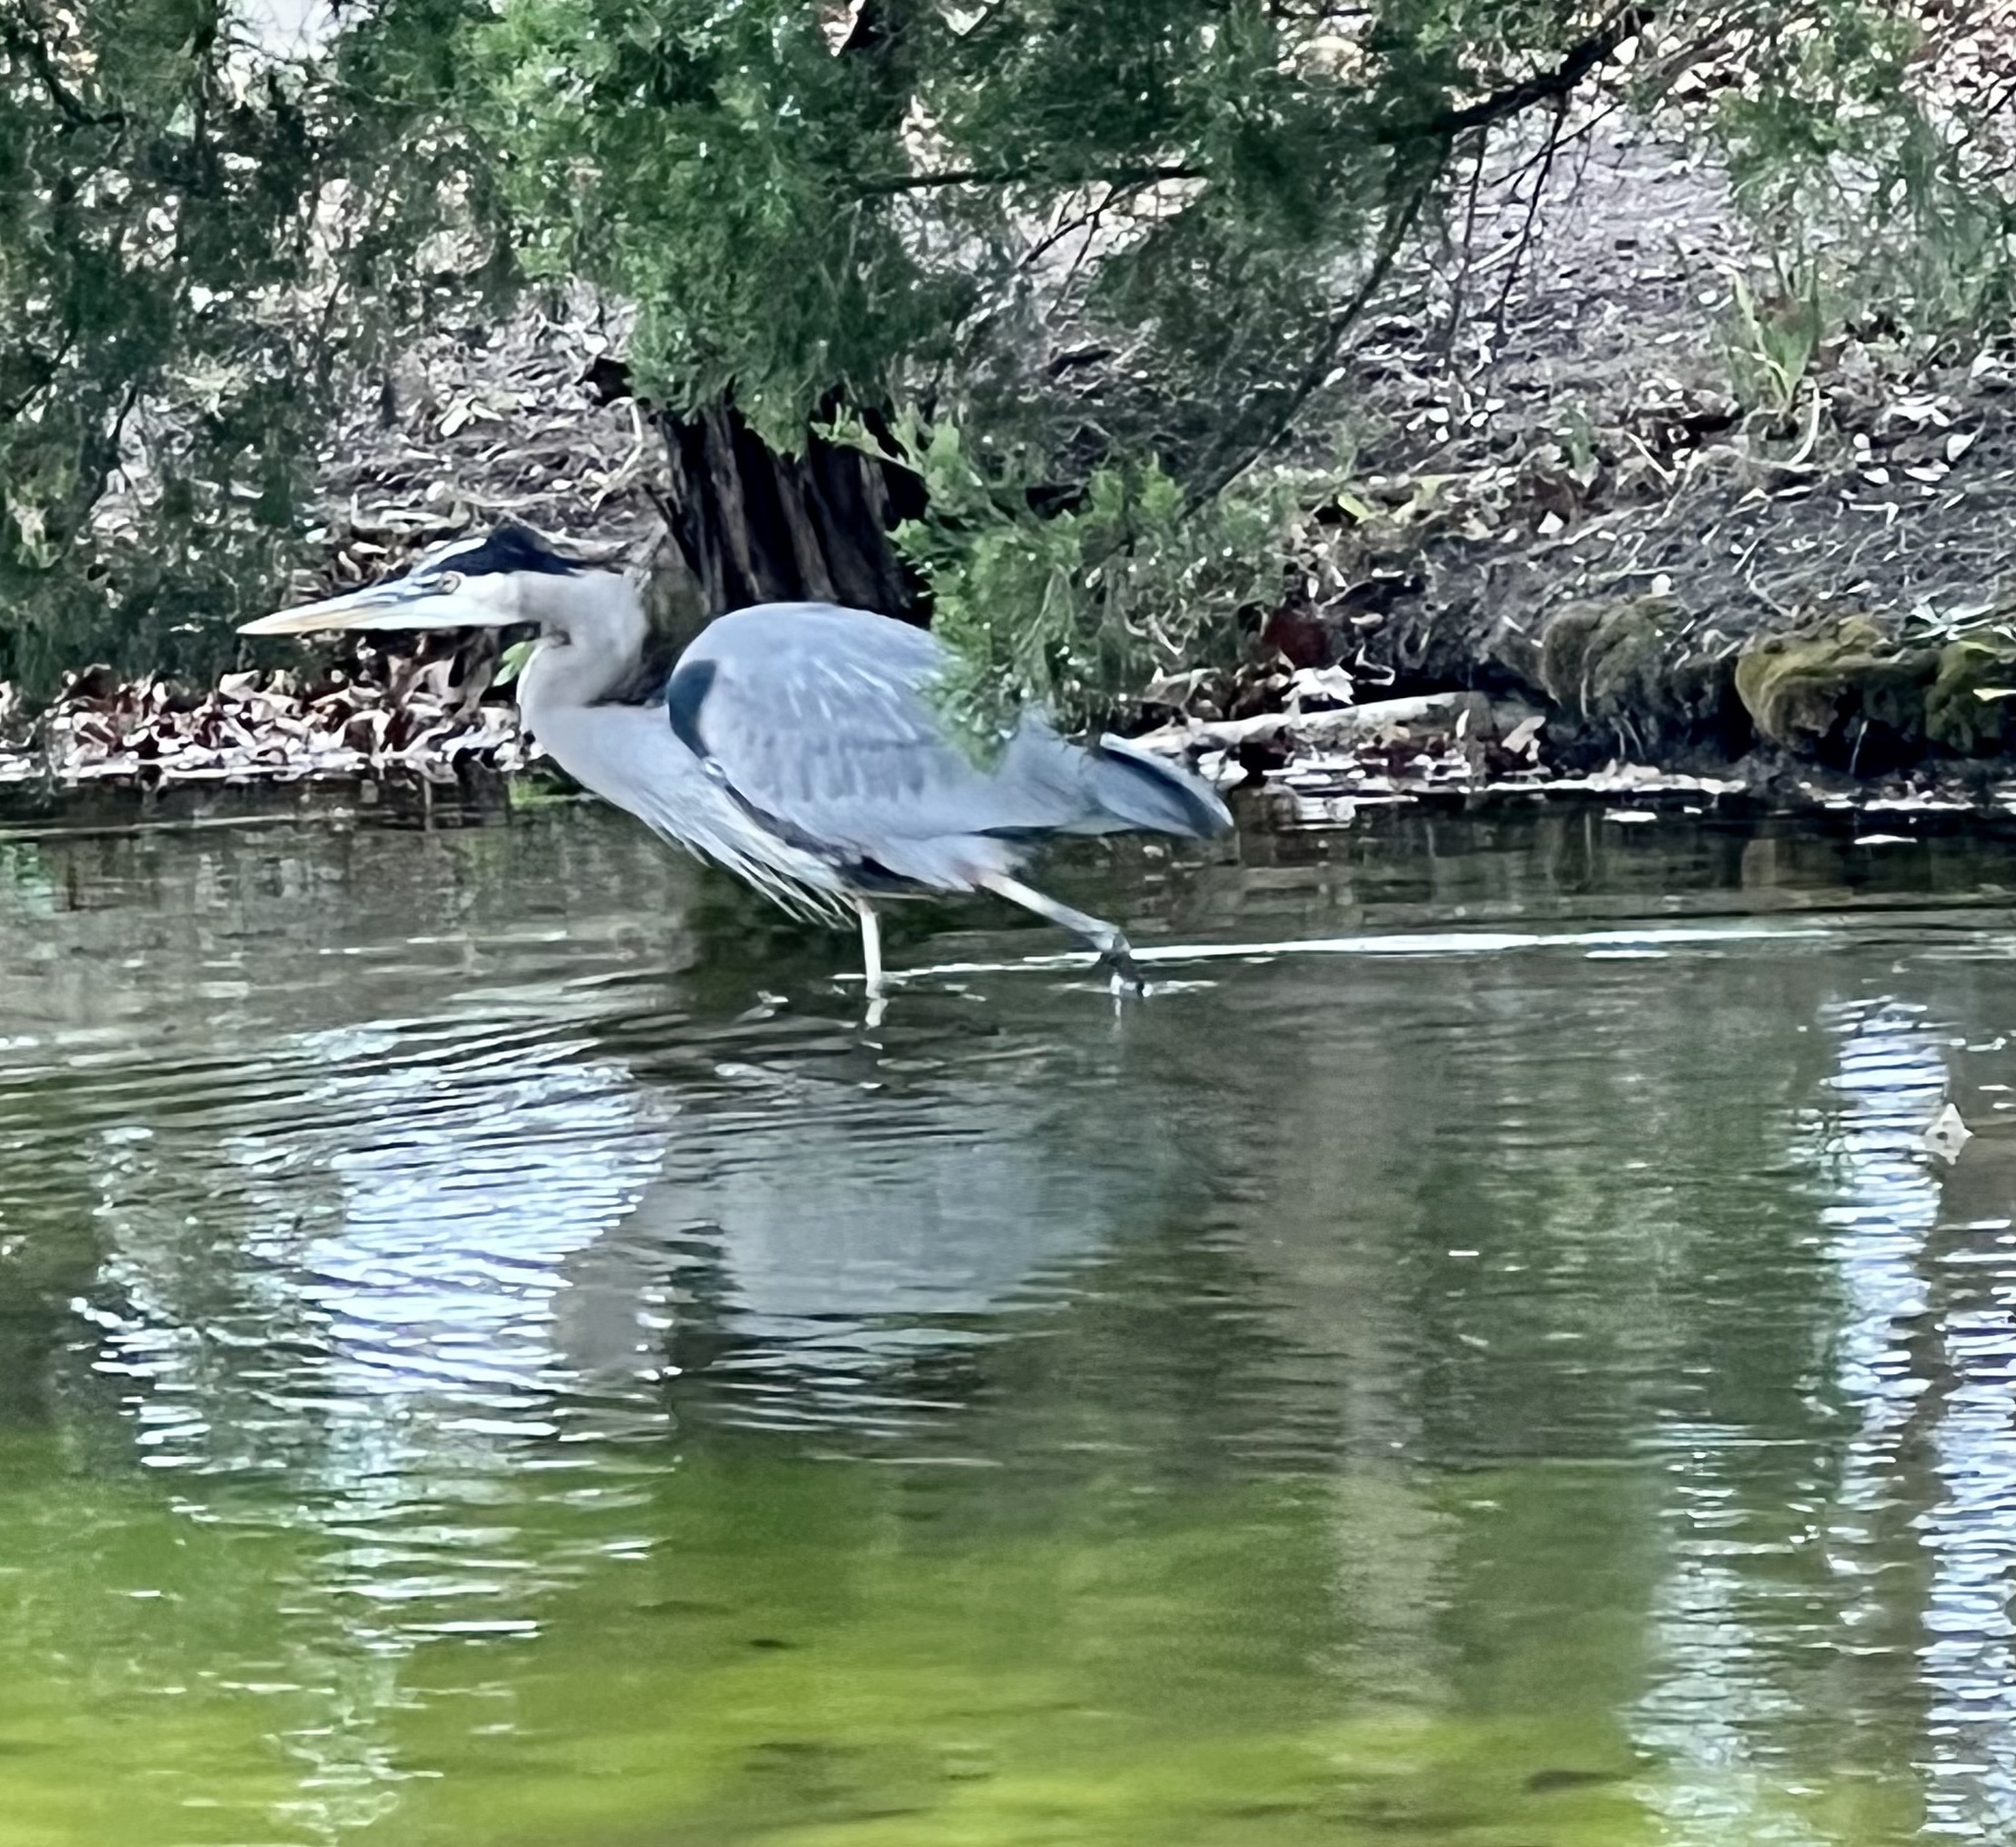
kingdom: Animalia
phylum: Chordata
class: Aves
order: Pelecaniformes
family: Ardeidae
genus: Ardea
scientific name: Ardea herodias
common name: Great blue heron
